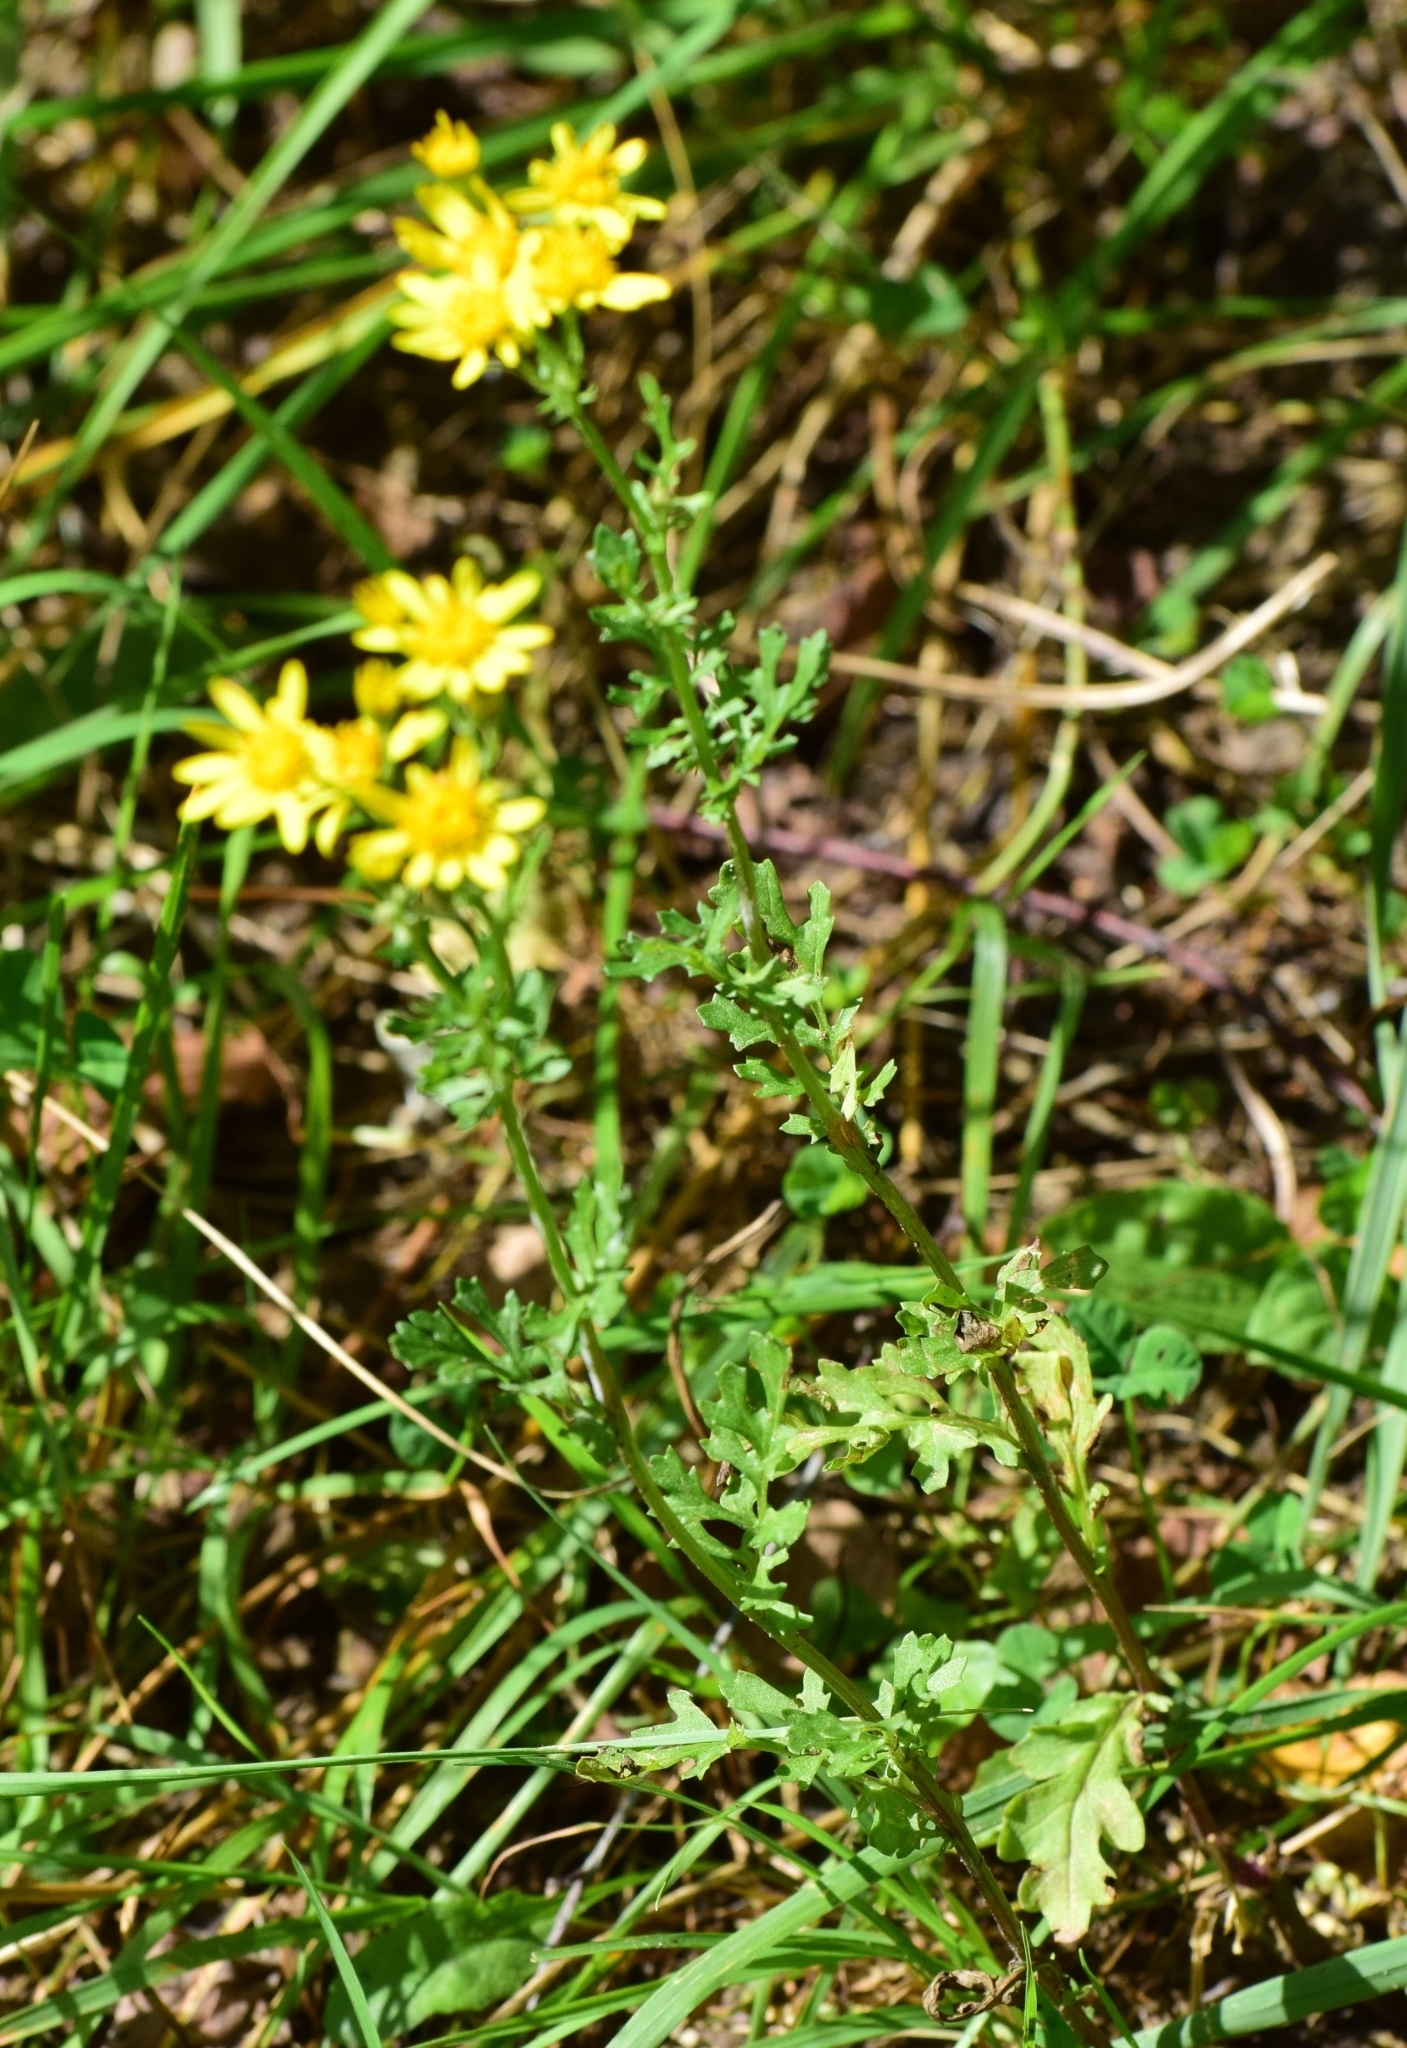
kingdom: Plantae
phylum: Tracheophyta
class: Magnoliopsida
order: Asterales
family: Asteraceae
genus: Jacobaea
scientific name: Jacobaea vulgaris
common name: Stinking willie
